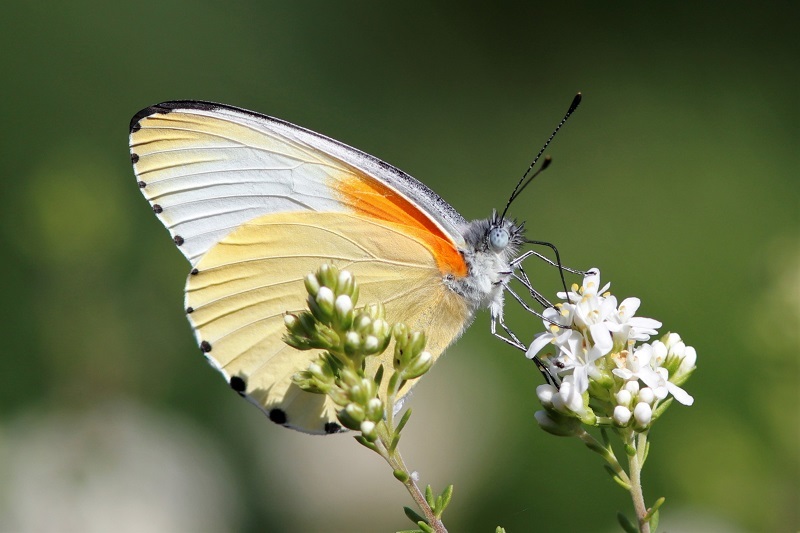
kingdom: Animalia
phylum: Arthropoda
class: Insecta
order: Lepidoptera
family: Pieridae
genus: Mylothris
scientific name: Mylothris agathina
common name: Eastern dotted border
